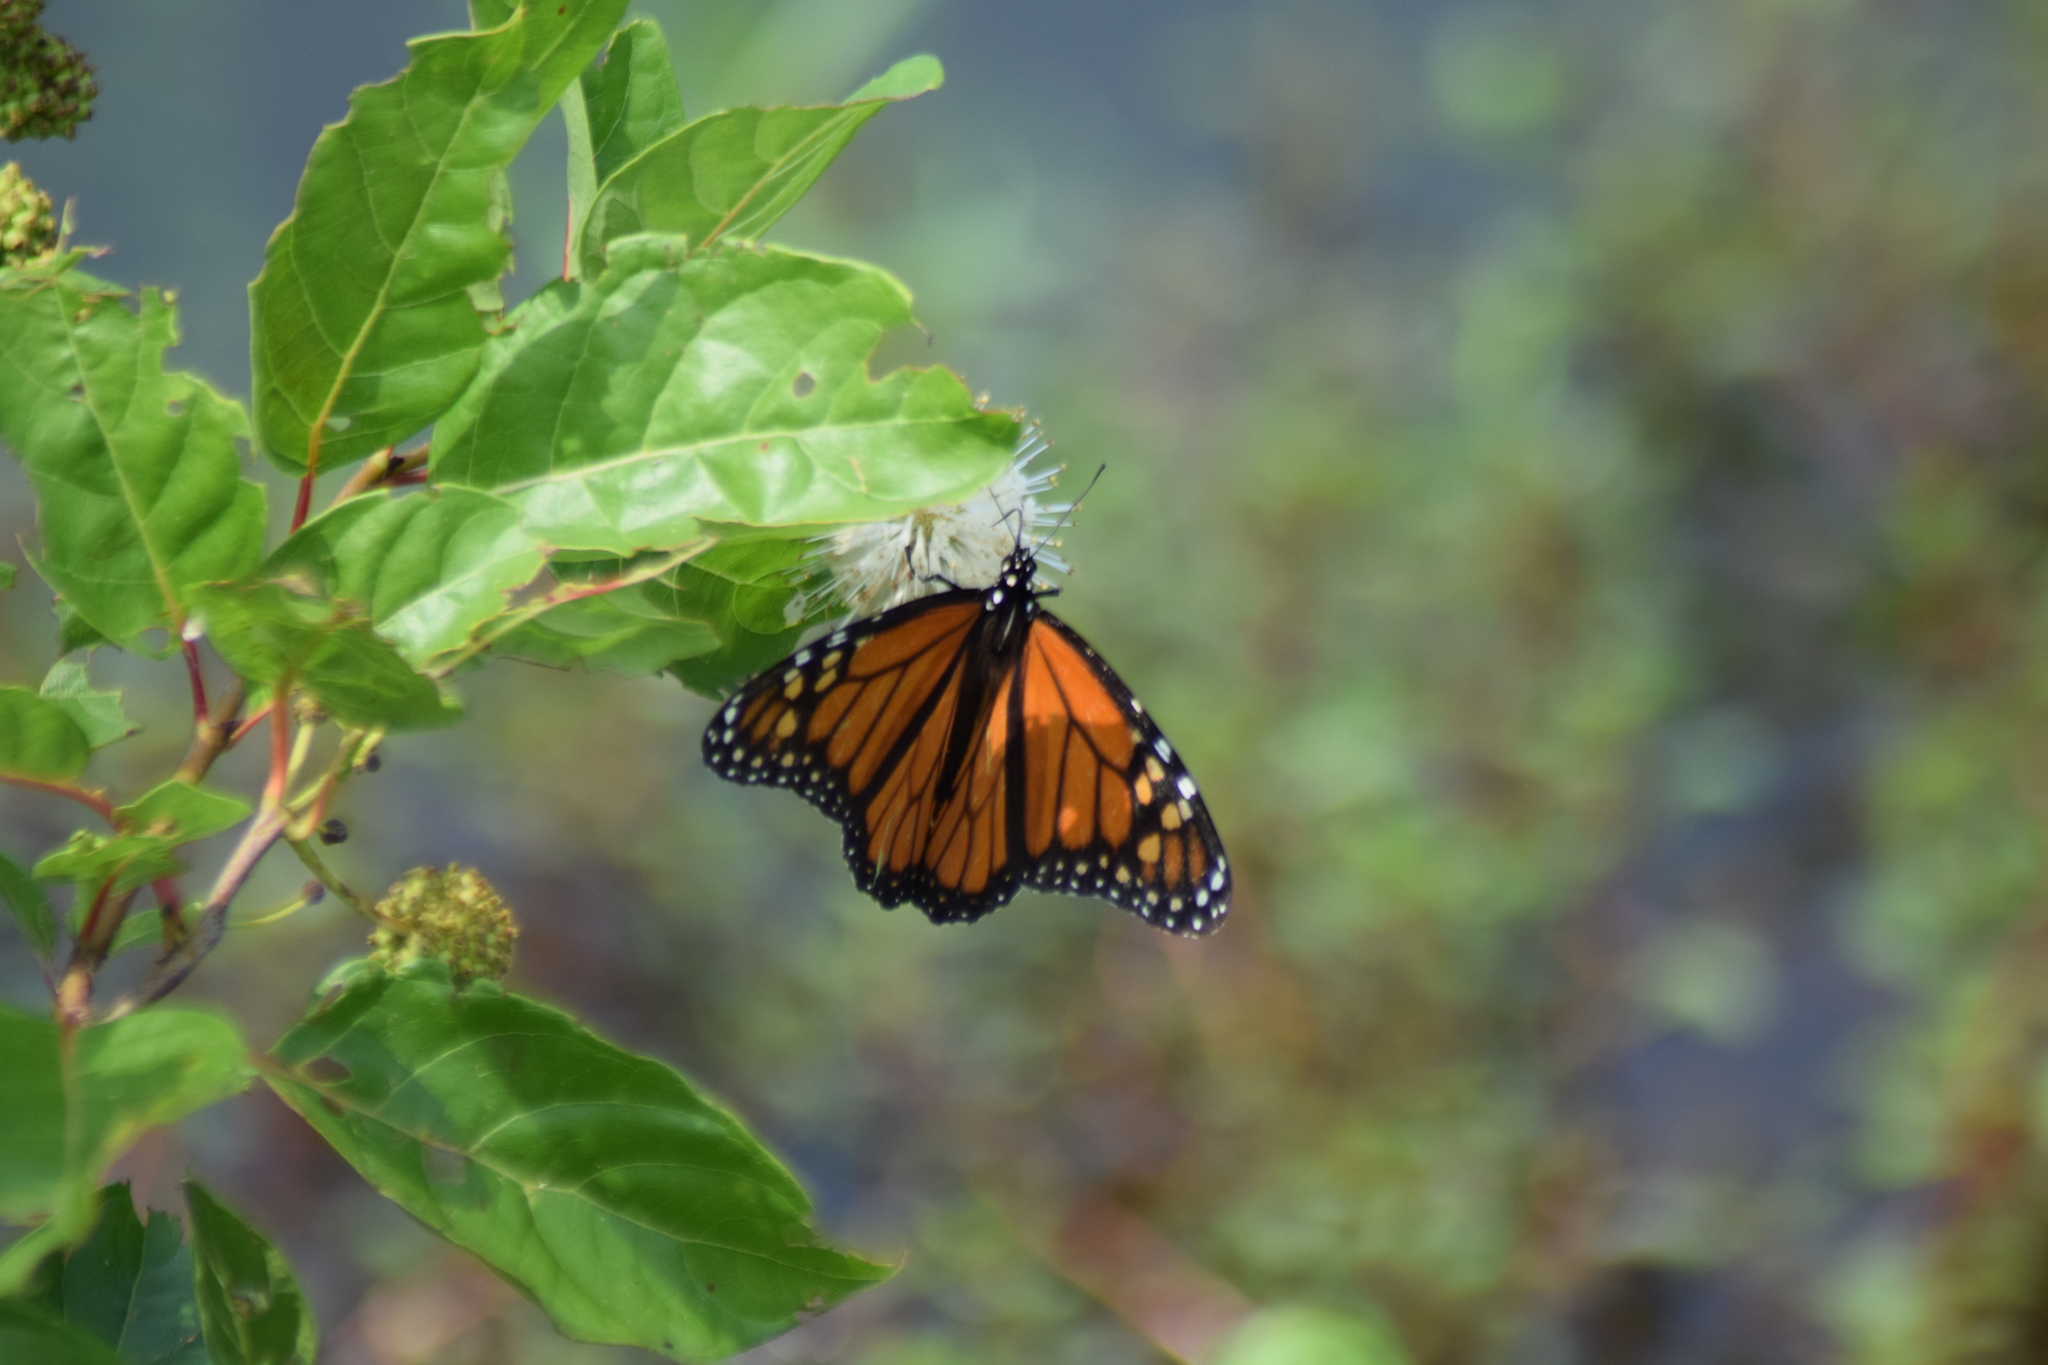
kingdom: Animalia
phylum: Arthropoda
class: Insecta
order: Lepidoptera
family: Nymphalidae
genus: Danaus
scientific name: Danaus plexippus
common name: Monarch
